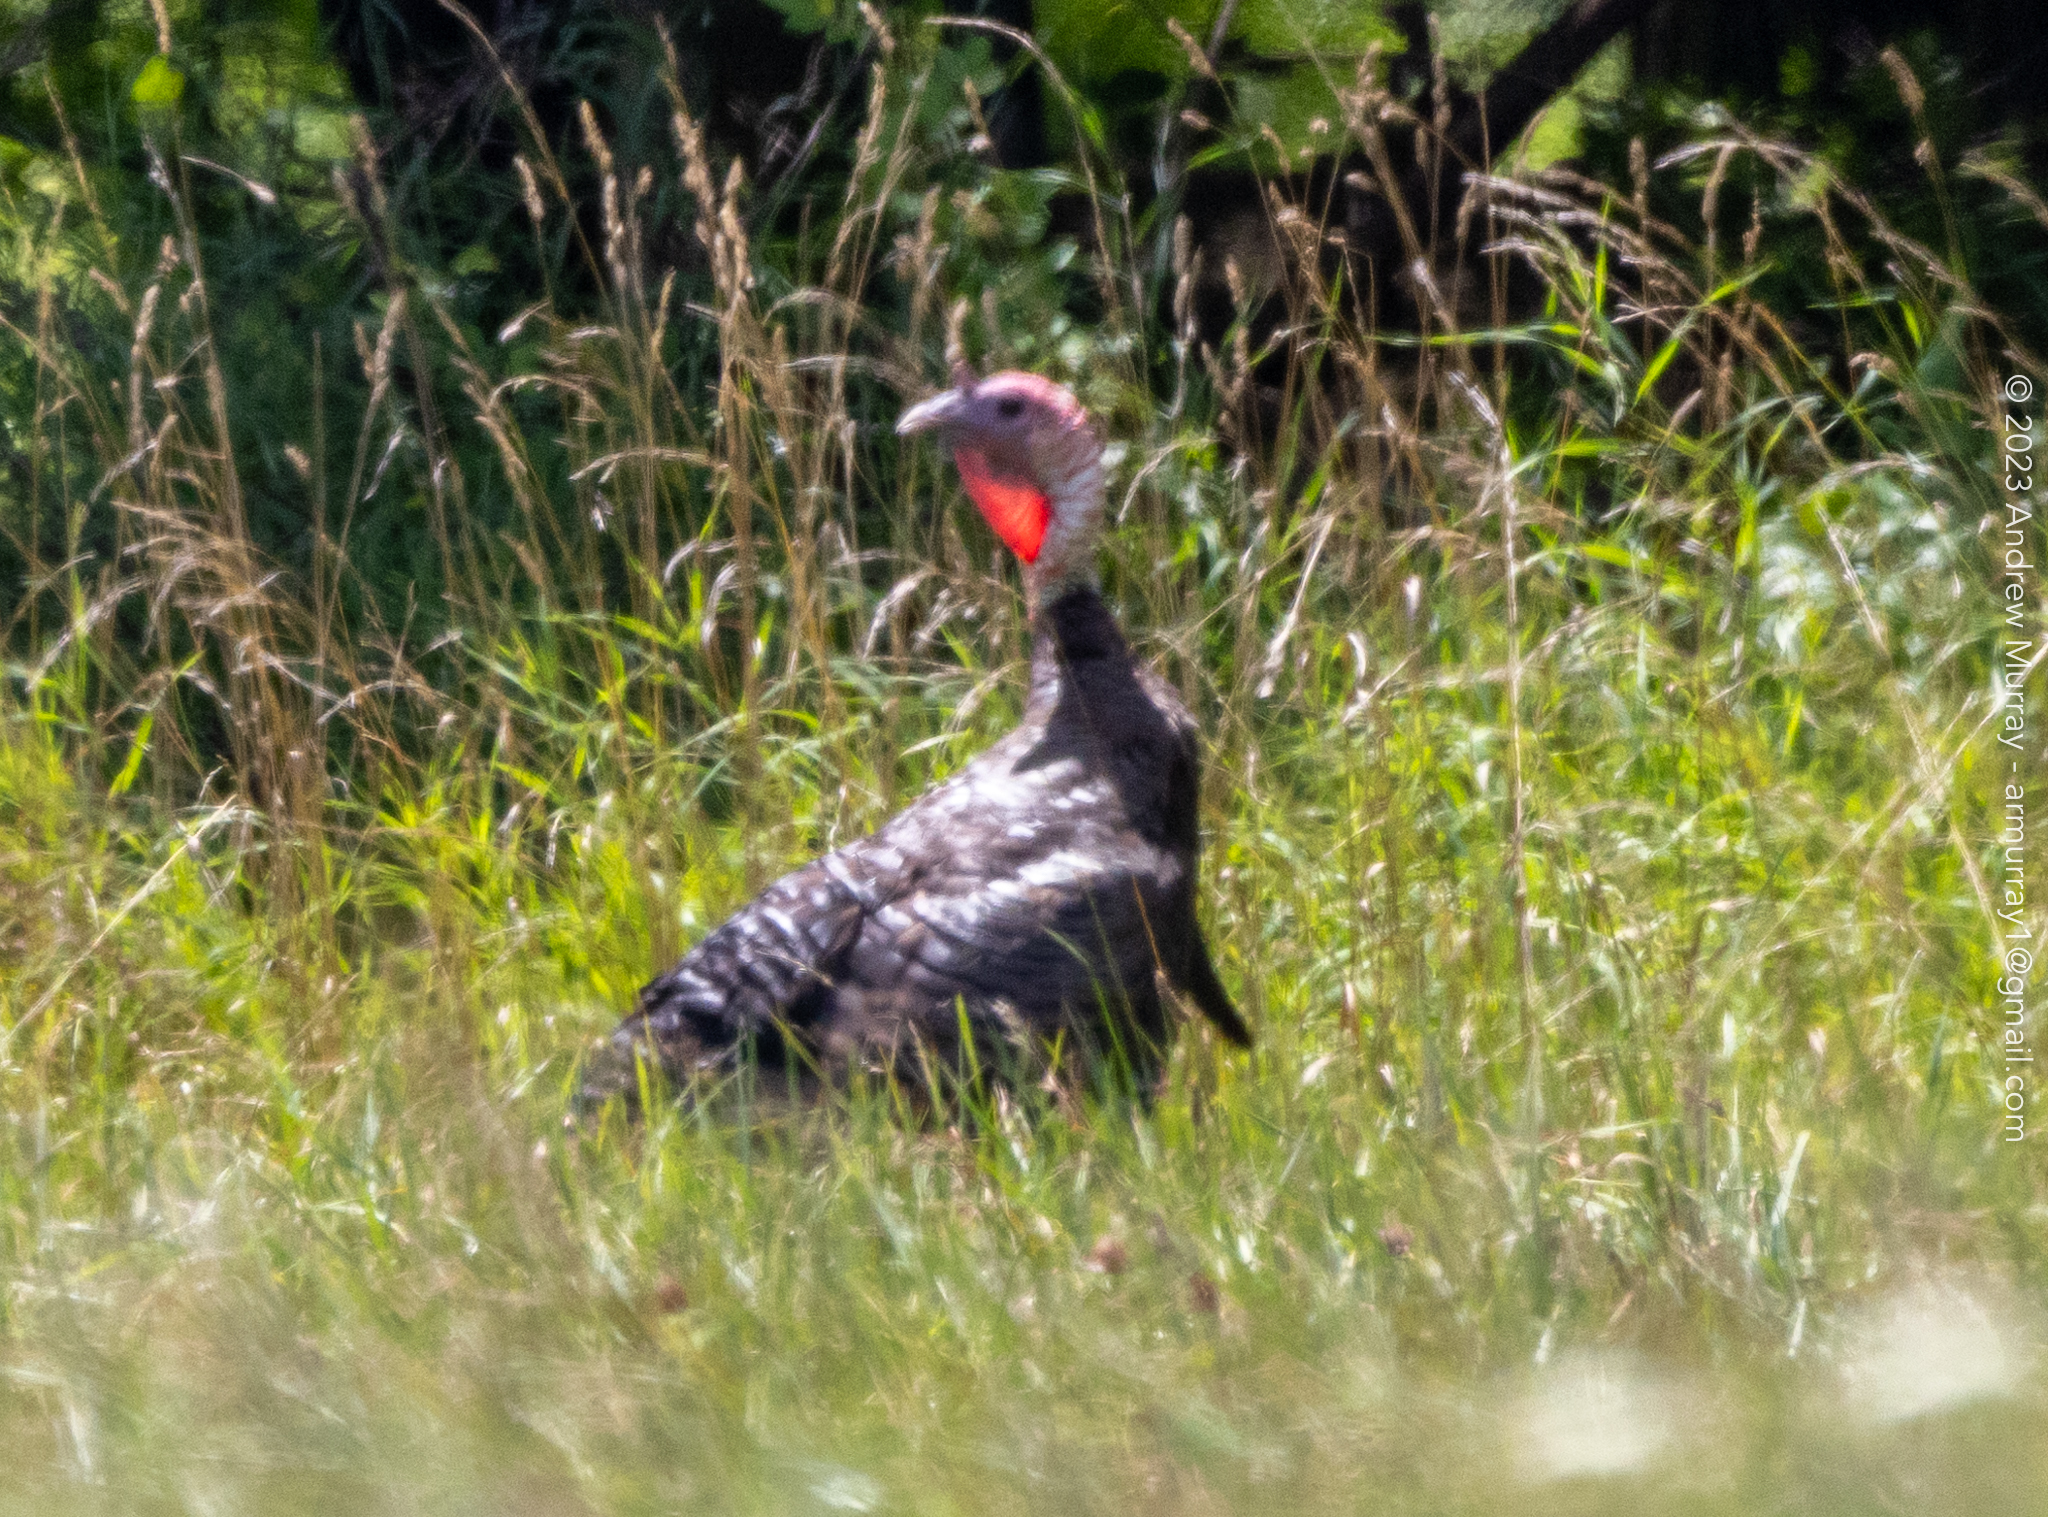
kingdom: Animalia
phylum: Chordata
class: Aves
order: Galliformes
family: Phasianidae
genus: Meleagris
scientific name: Meleagris gallopavo
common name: Wild turkey
